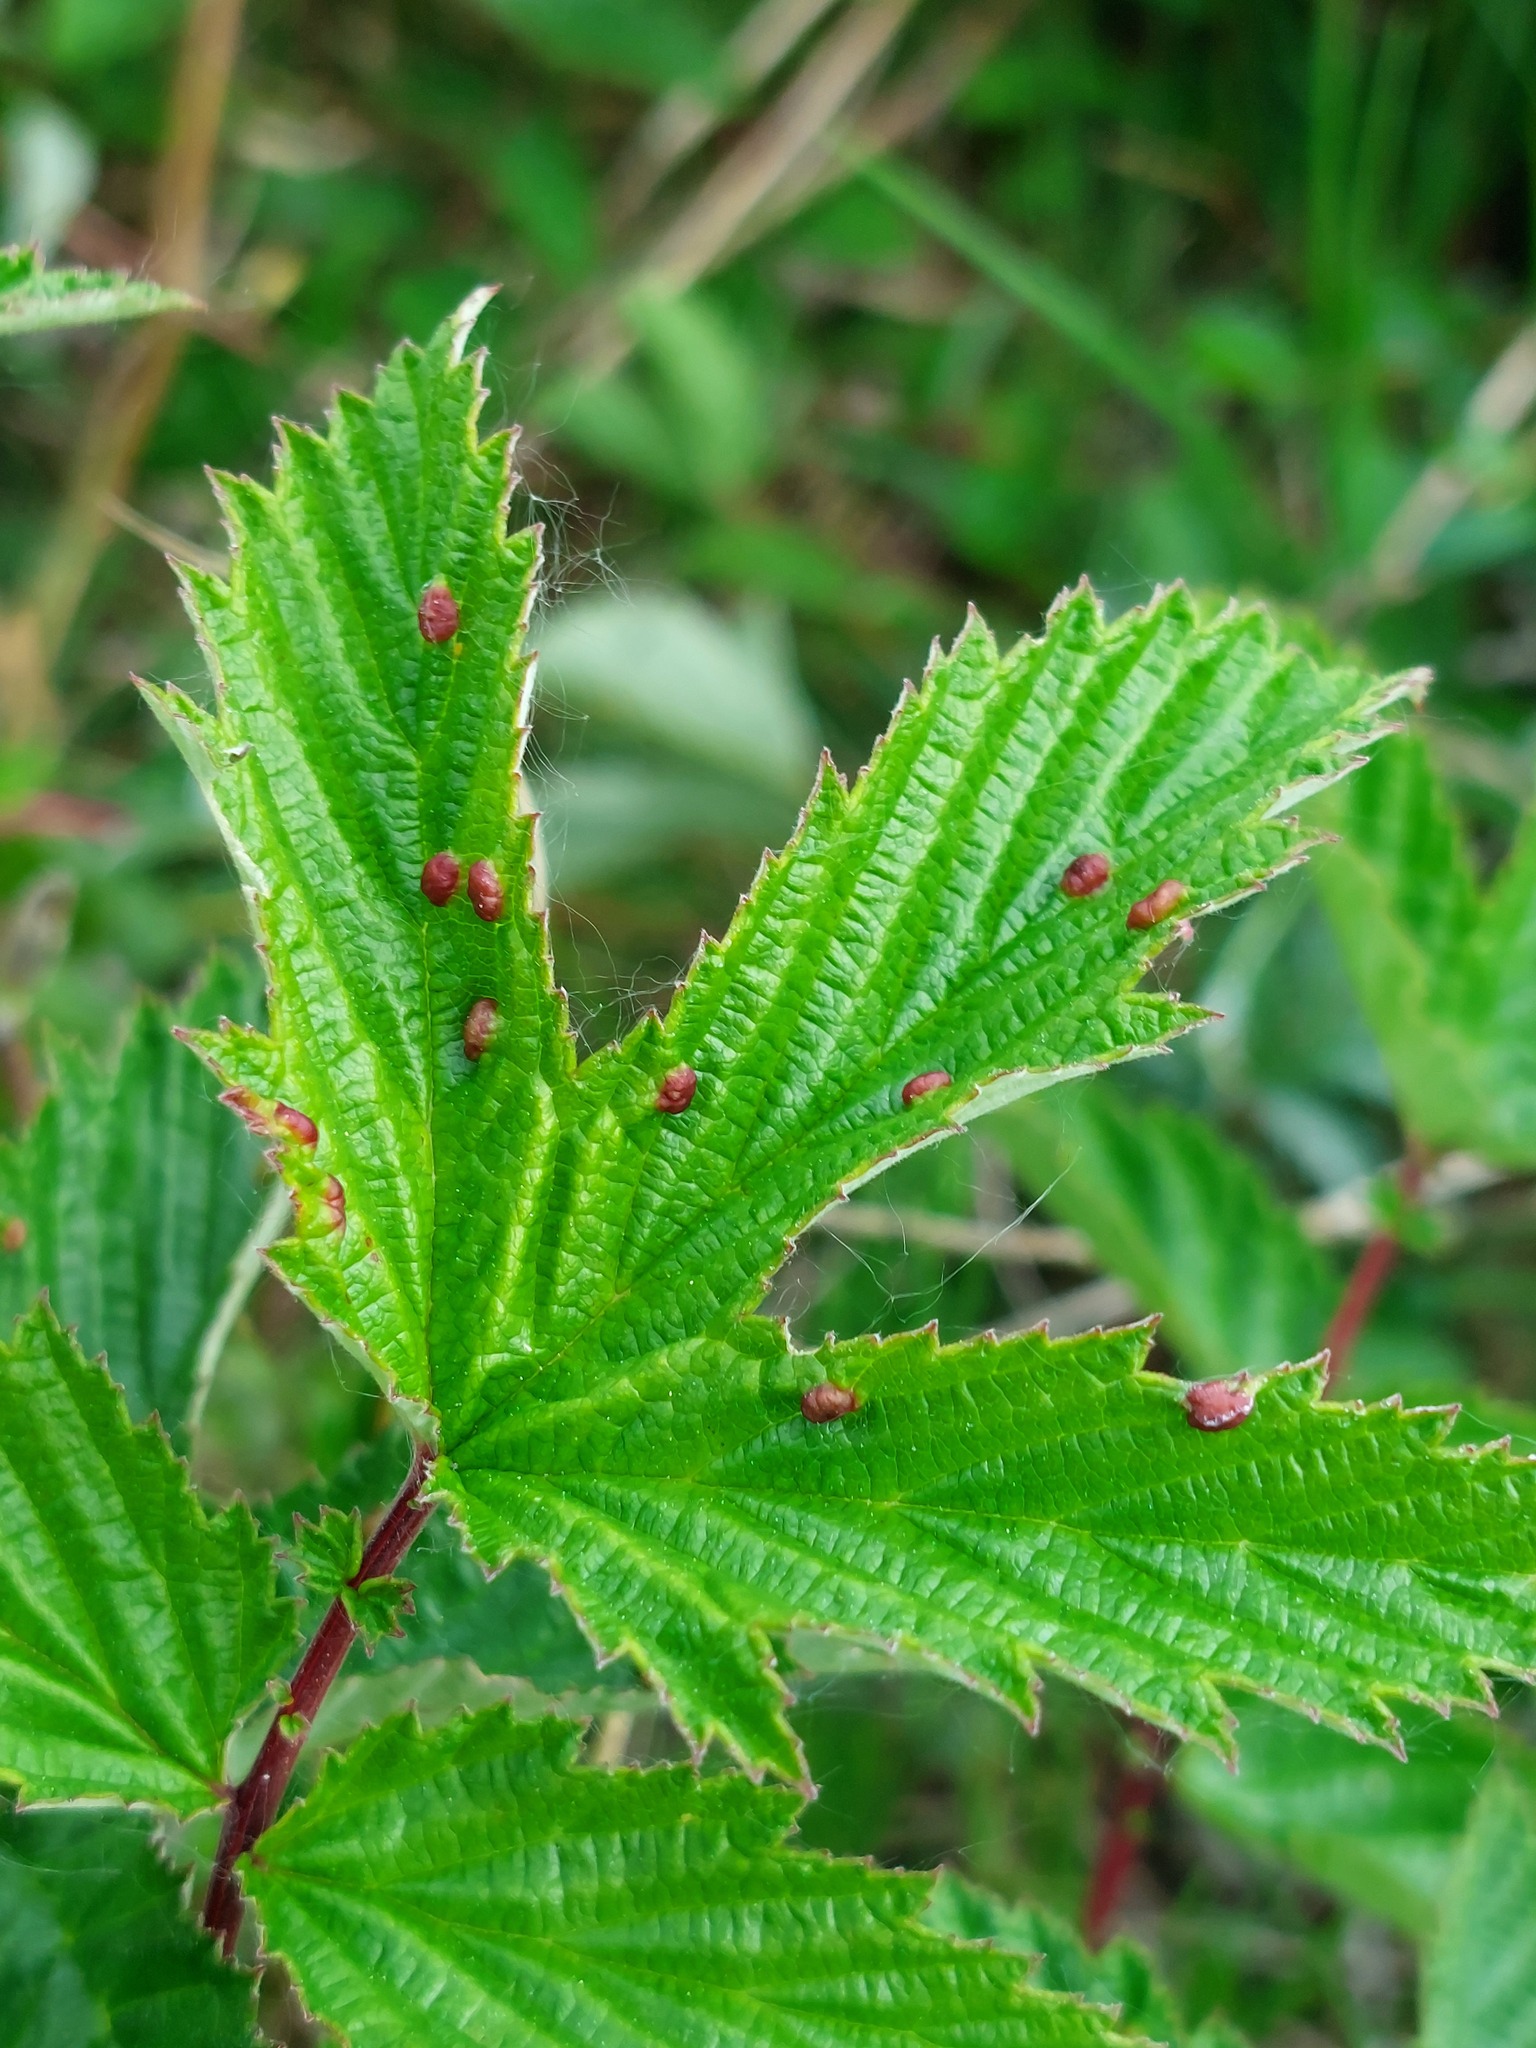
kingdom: Animalia
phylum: Arthropoda
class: Insecta
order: Diptera
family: Cecidomyiidae
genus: Dasineura
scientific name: Dasineura ulmaria
